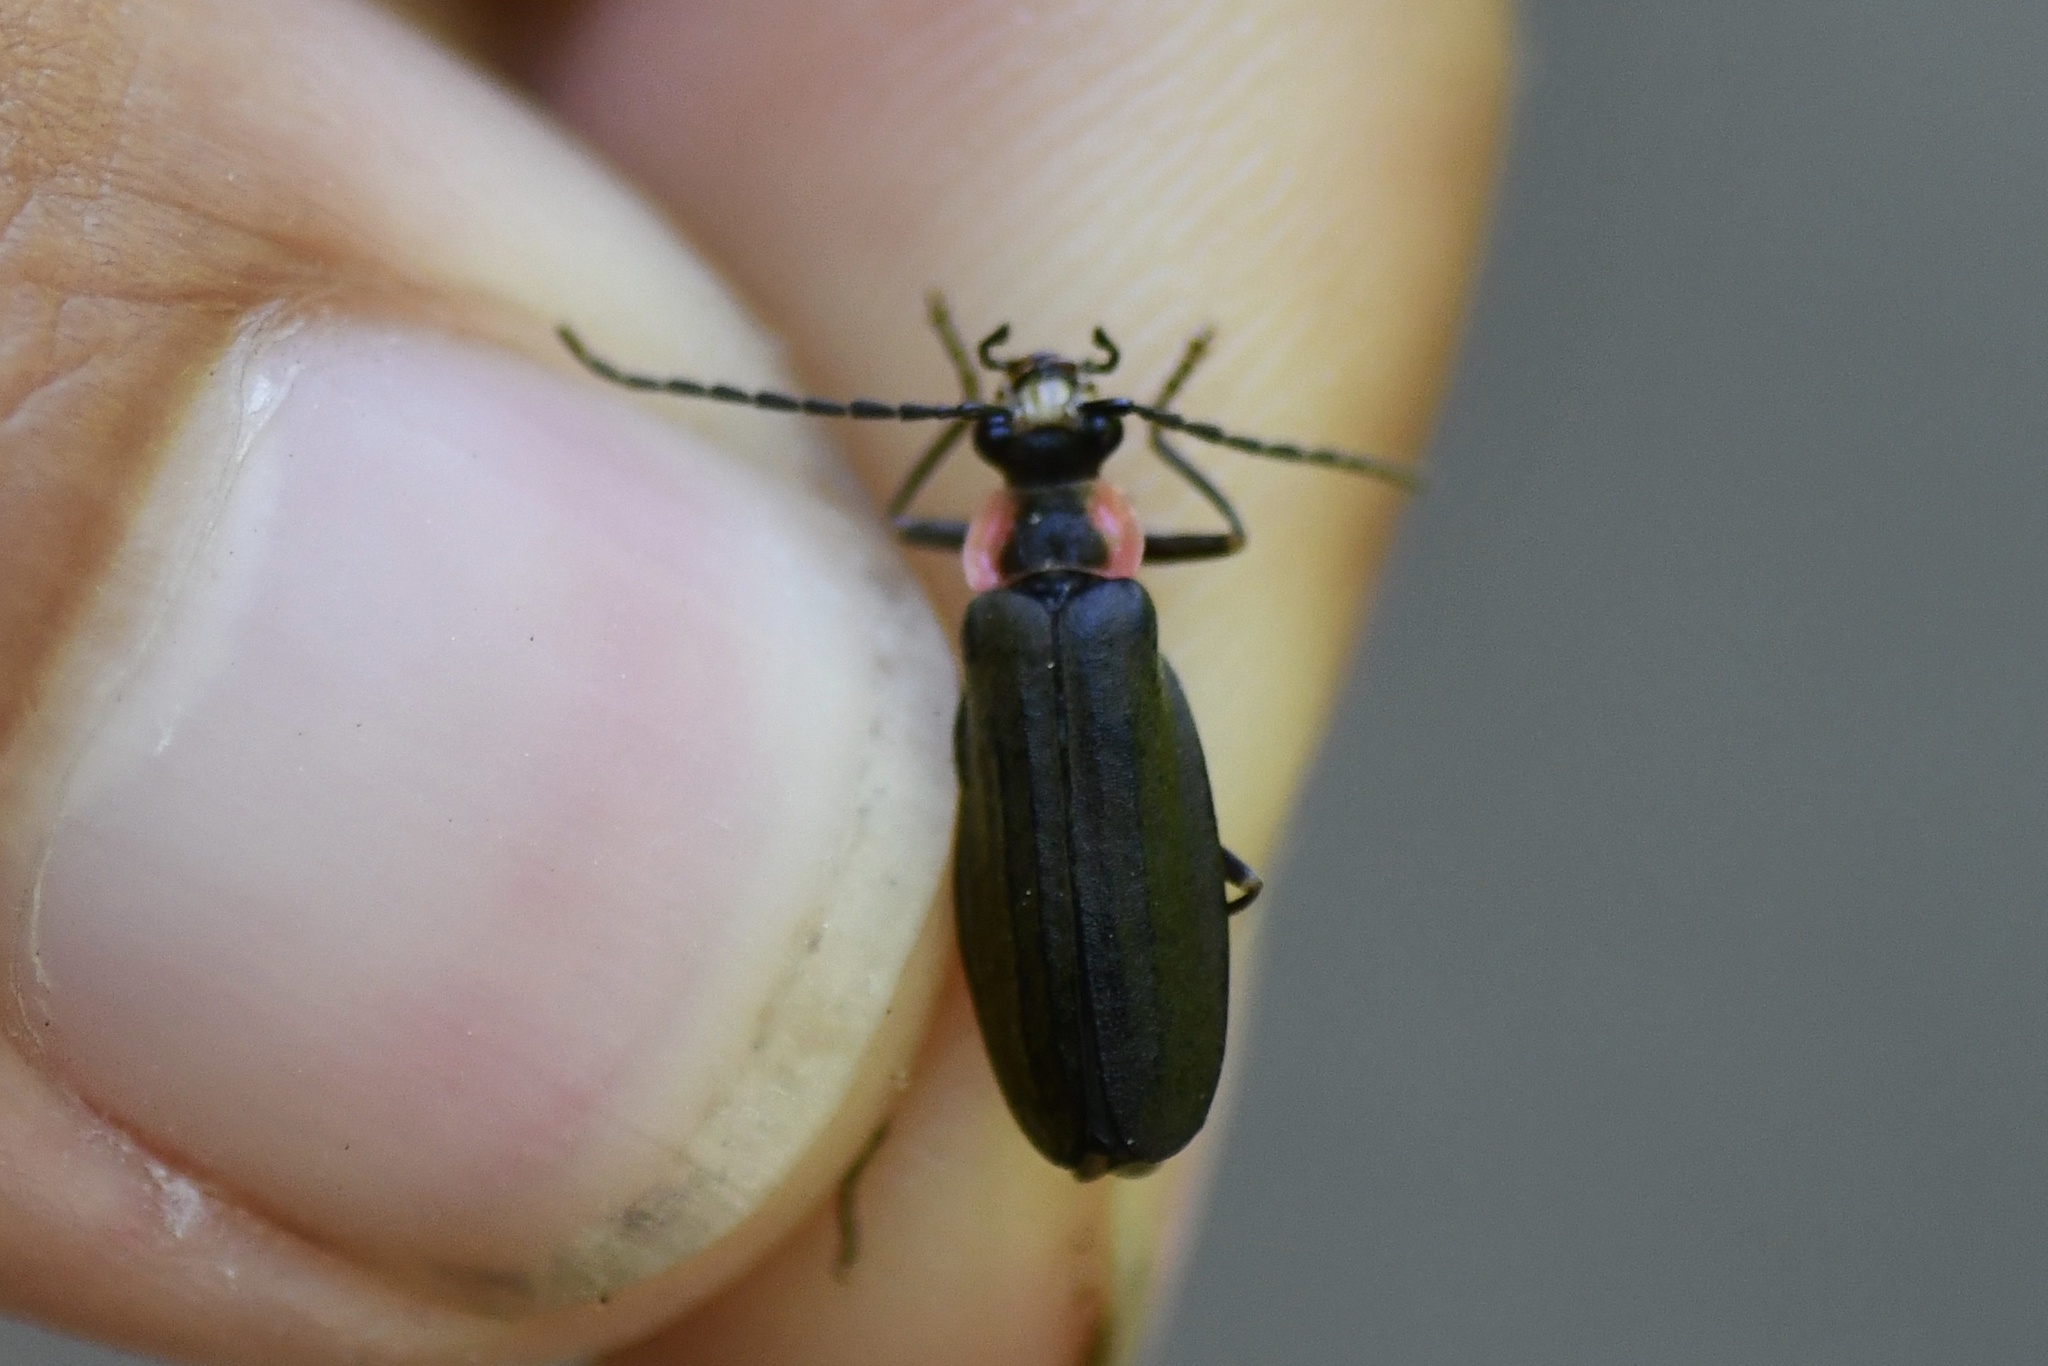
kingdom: Animalia
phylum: Arthropoda
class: Insecta
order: Coleoptera
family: Cantharidae
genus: Podabrus
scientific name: Podabrus tricostatus
